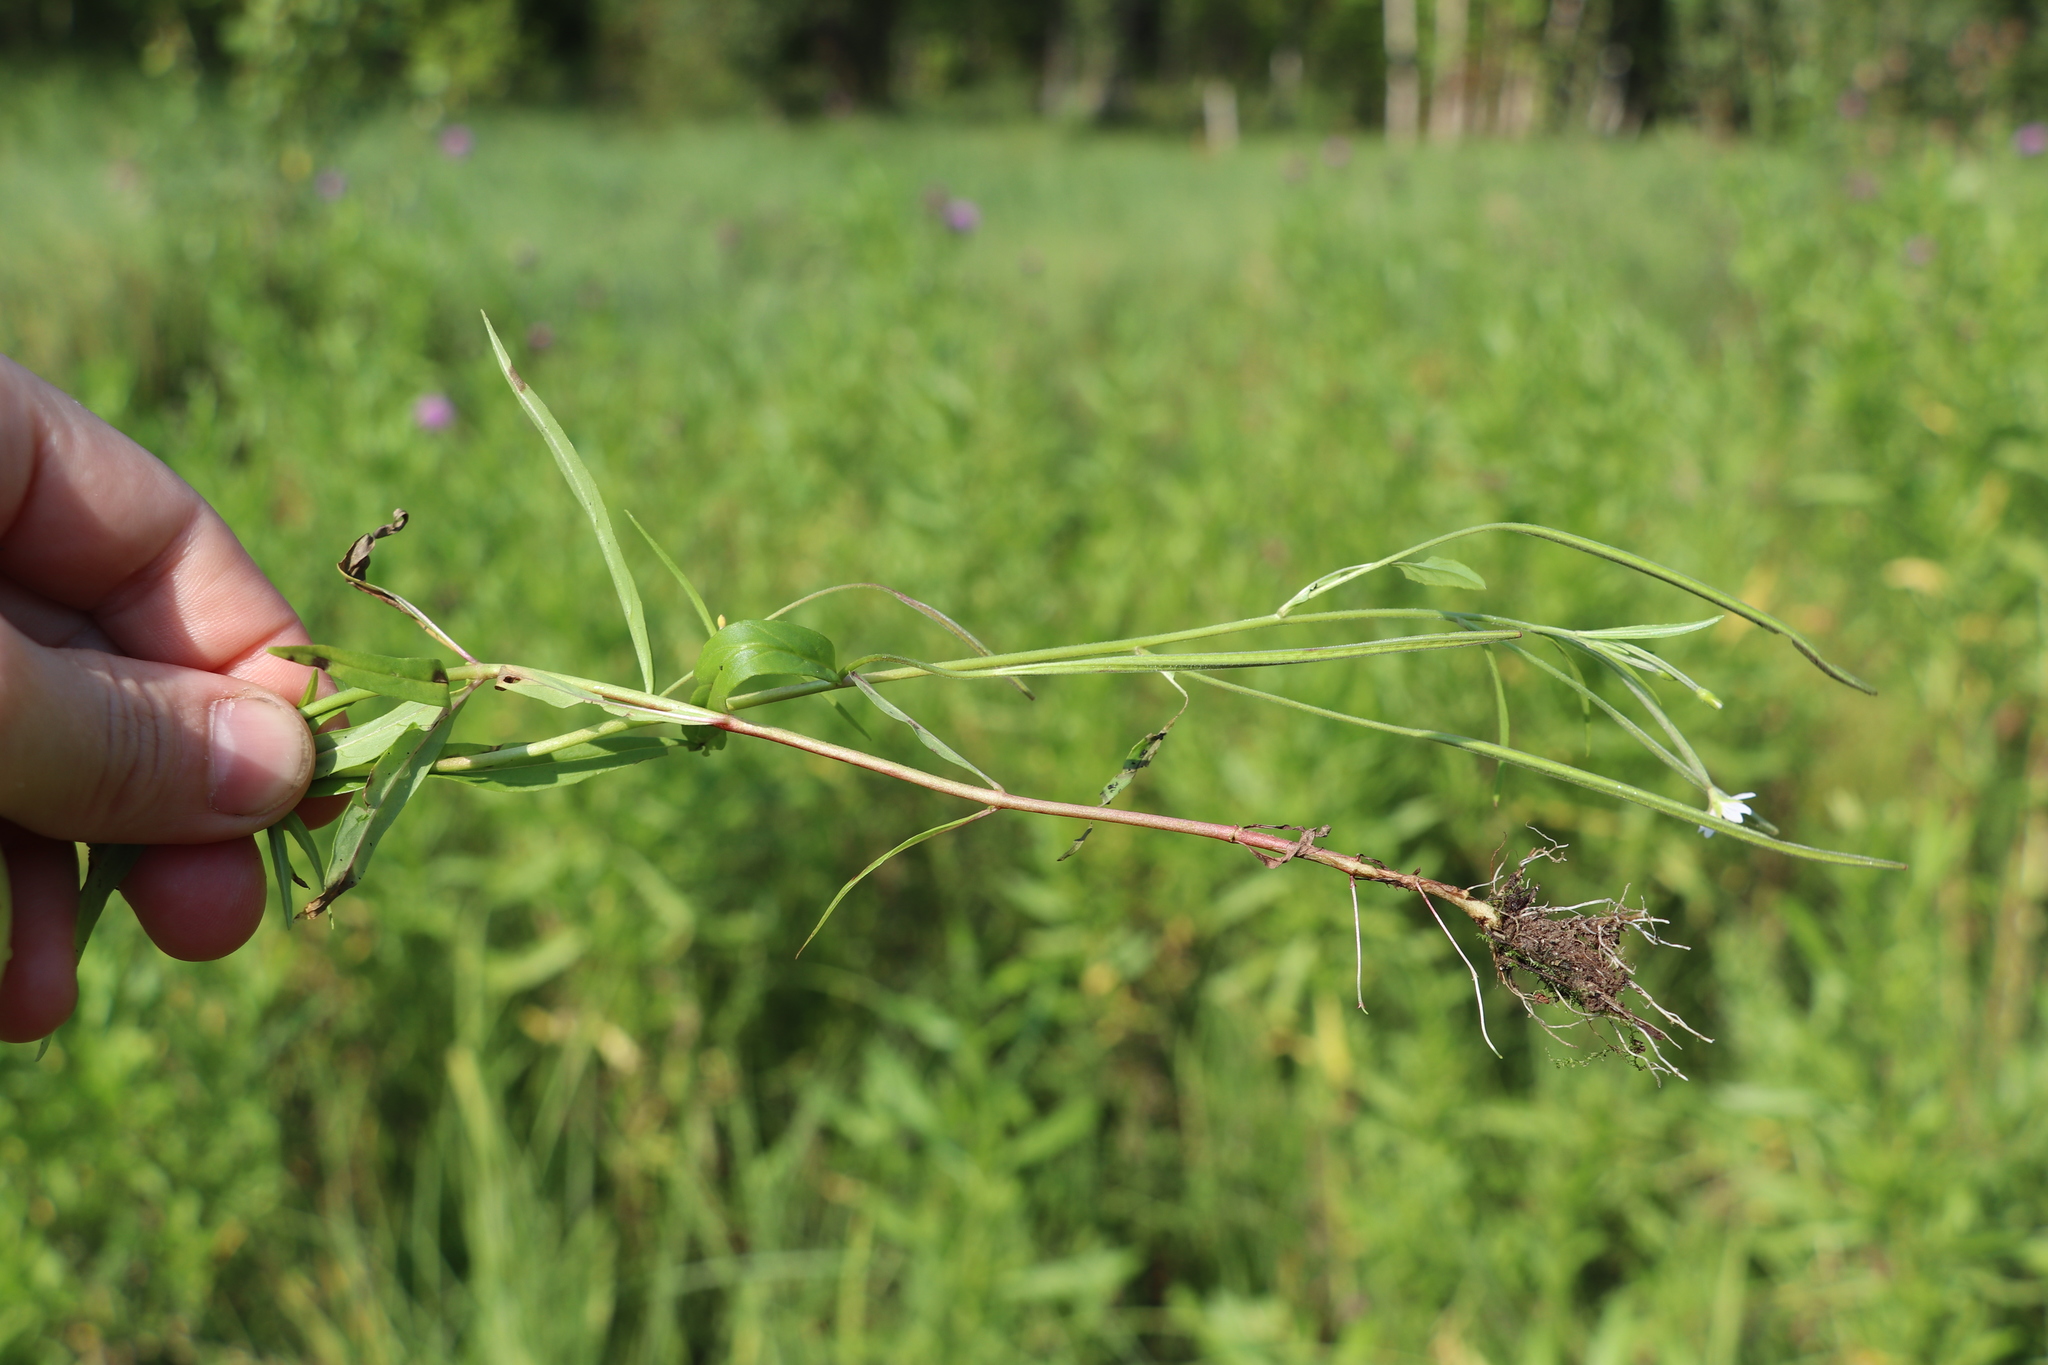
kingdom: Plantae
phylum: Tracheophyta
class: Magnoliopsida
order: Myrtales
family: Onagraceae
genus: Epilobium
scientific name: Epilobium palustre
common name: Marsh willowherb
